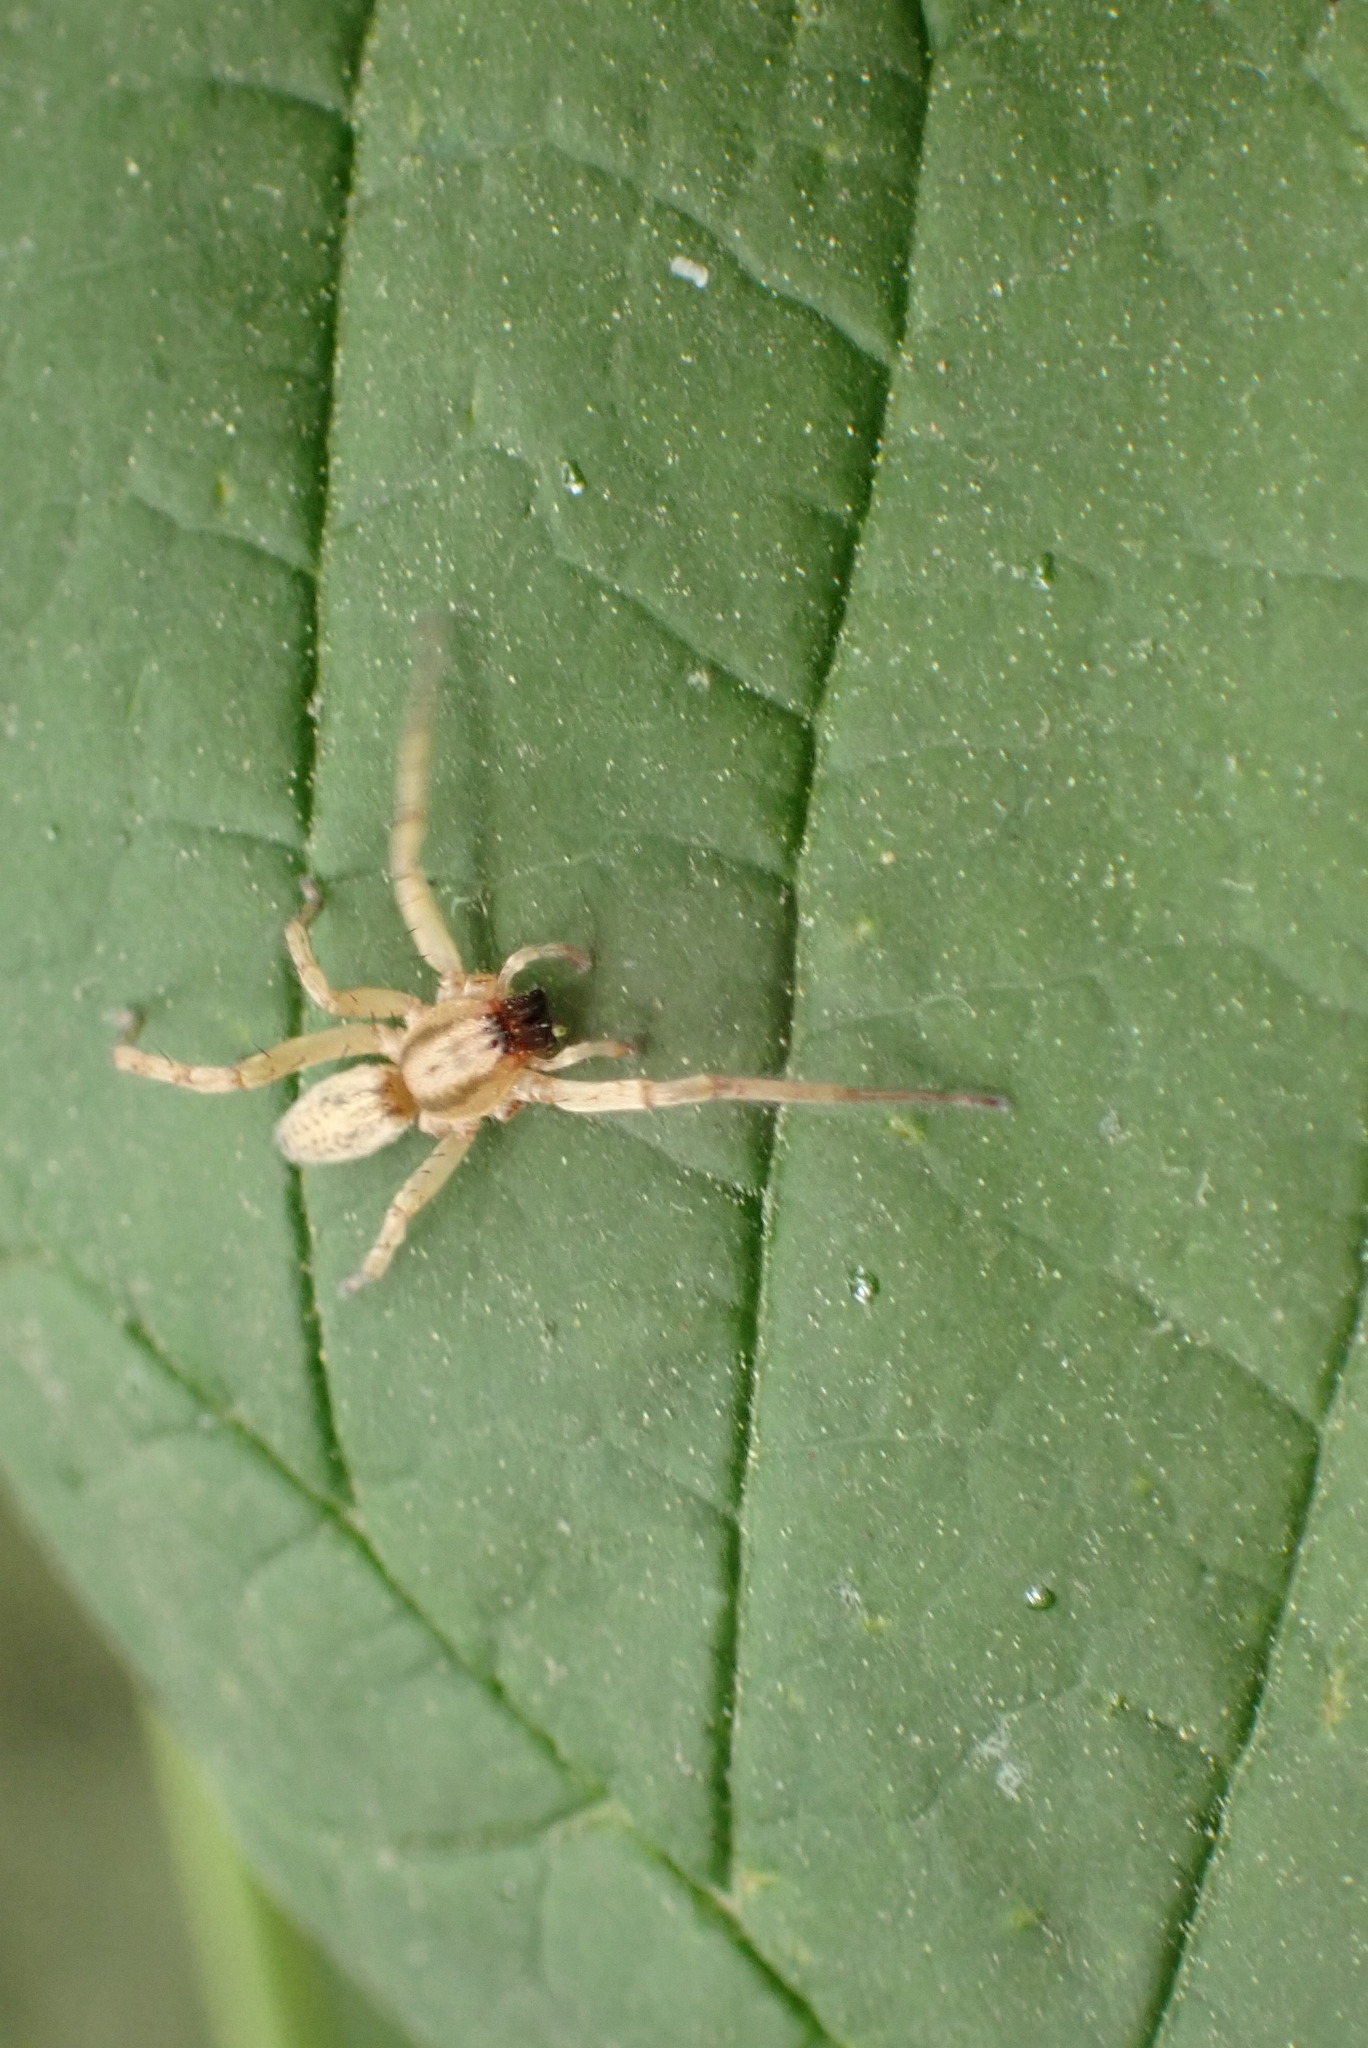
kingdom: Animalia
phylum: Arthropoda
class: Arachnida
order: Araneae
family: Anyphaenidae
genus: Hibana
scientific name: Hibana gracilis
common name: Garden ghost spider
